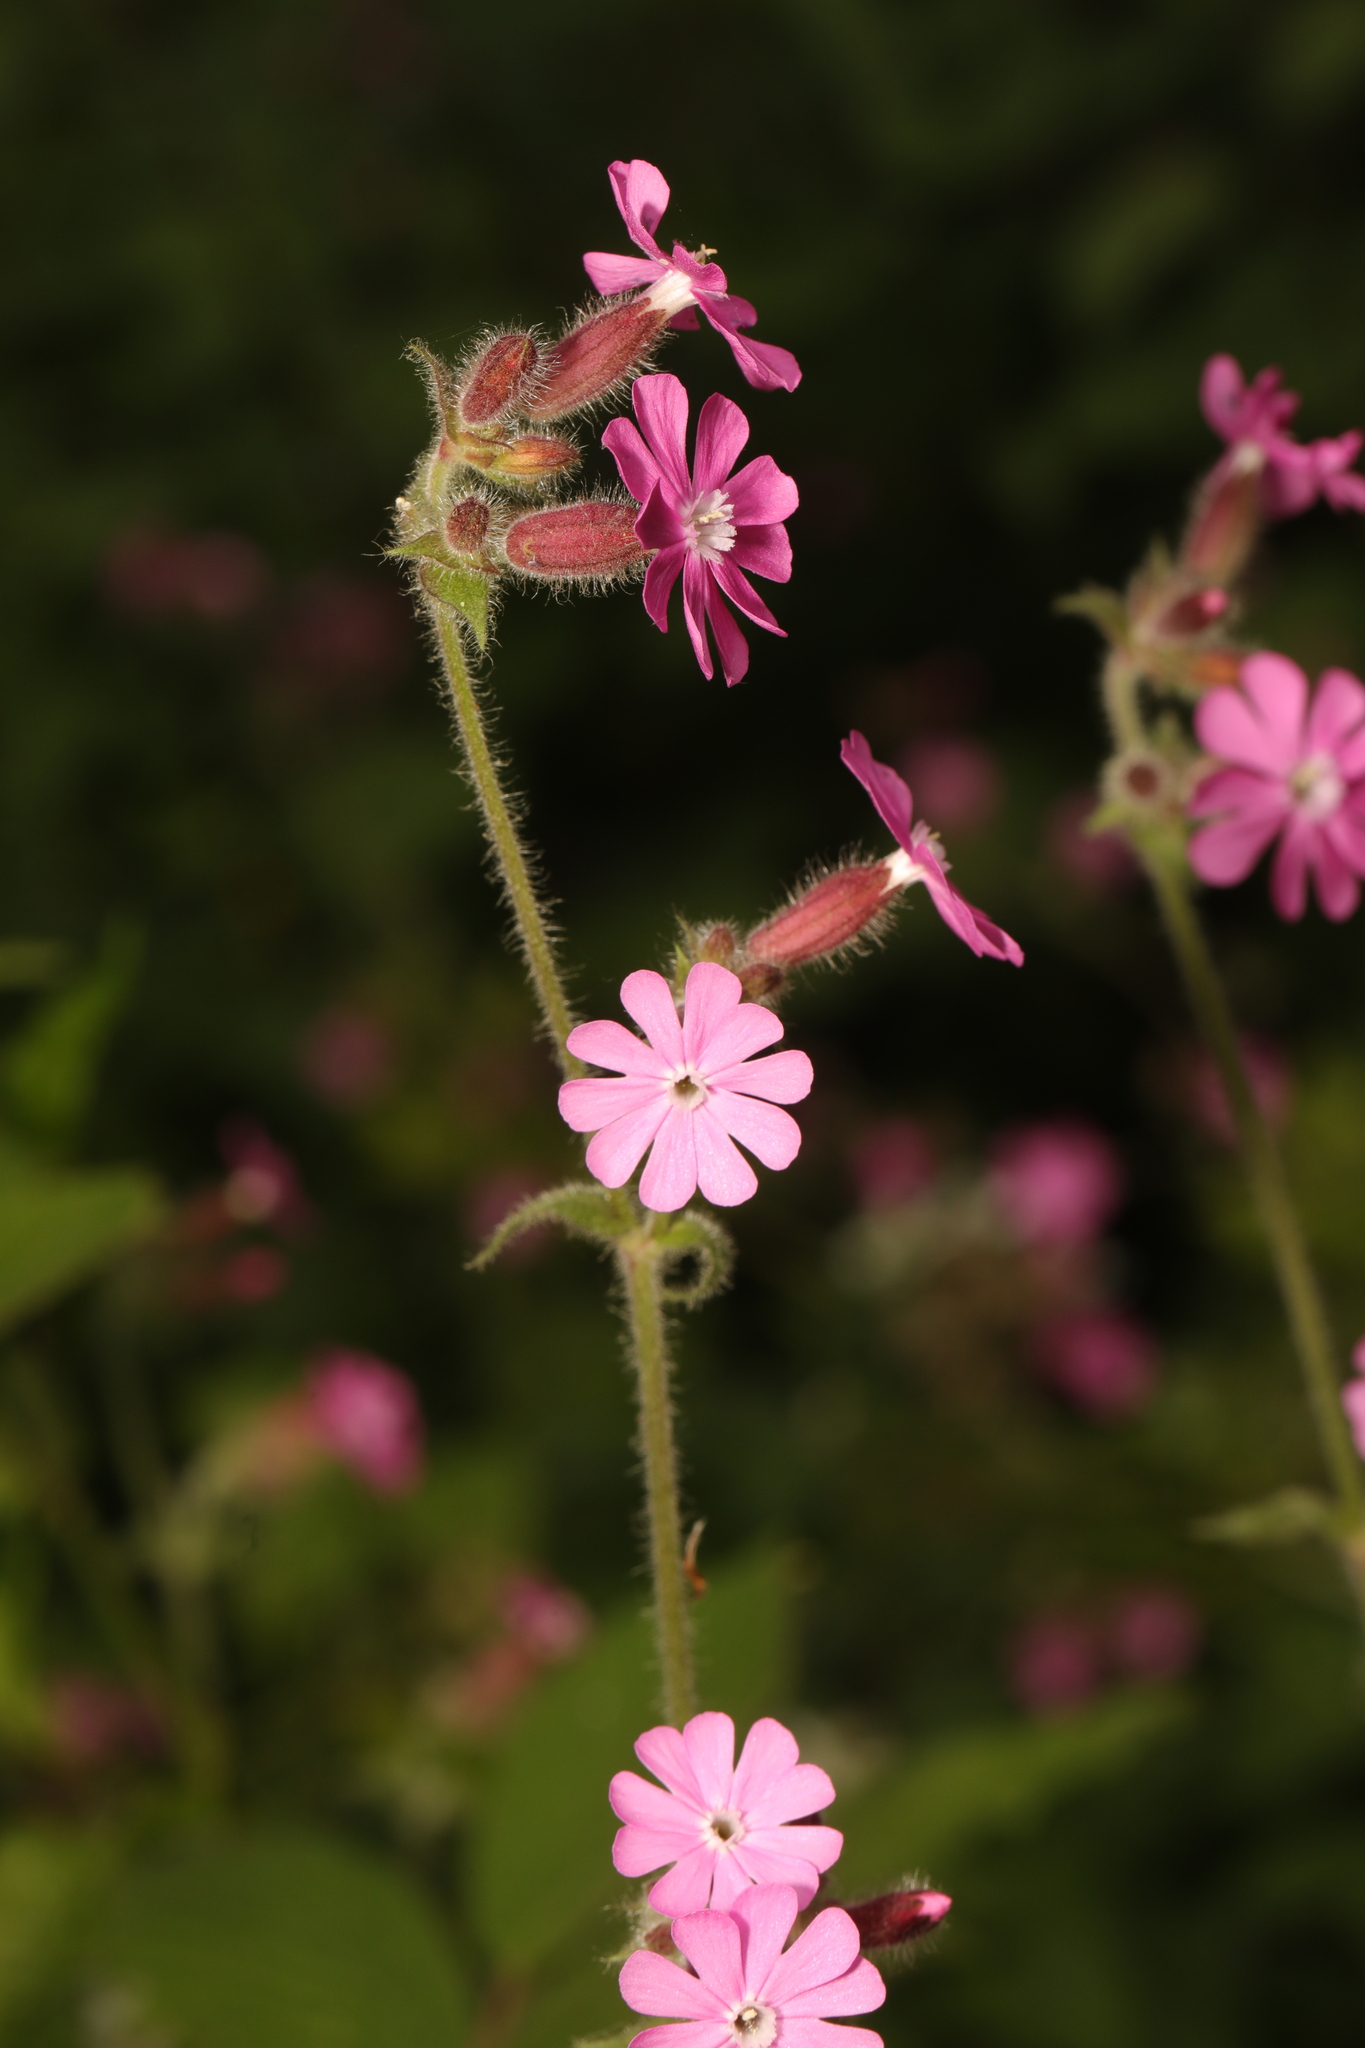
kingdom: Plantae
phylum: Tracheophyta
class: Magnoliopsida
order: Caryophyllales
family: Caryophyllaceae
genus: Silene
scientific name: Silene dioica
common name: Red campion
